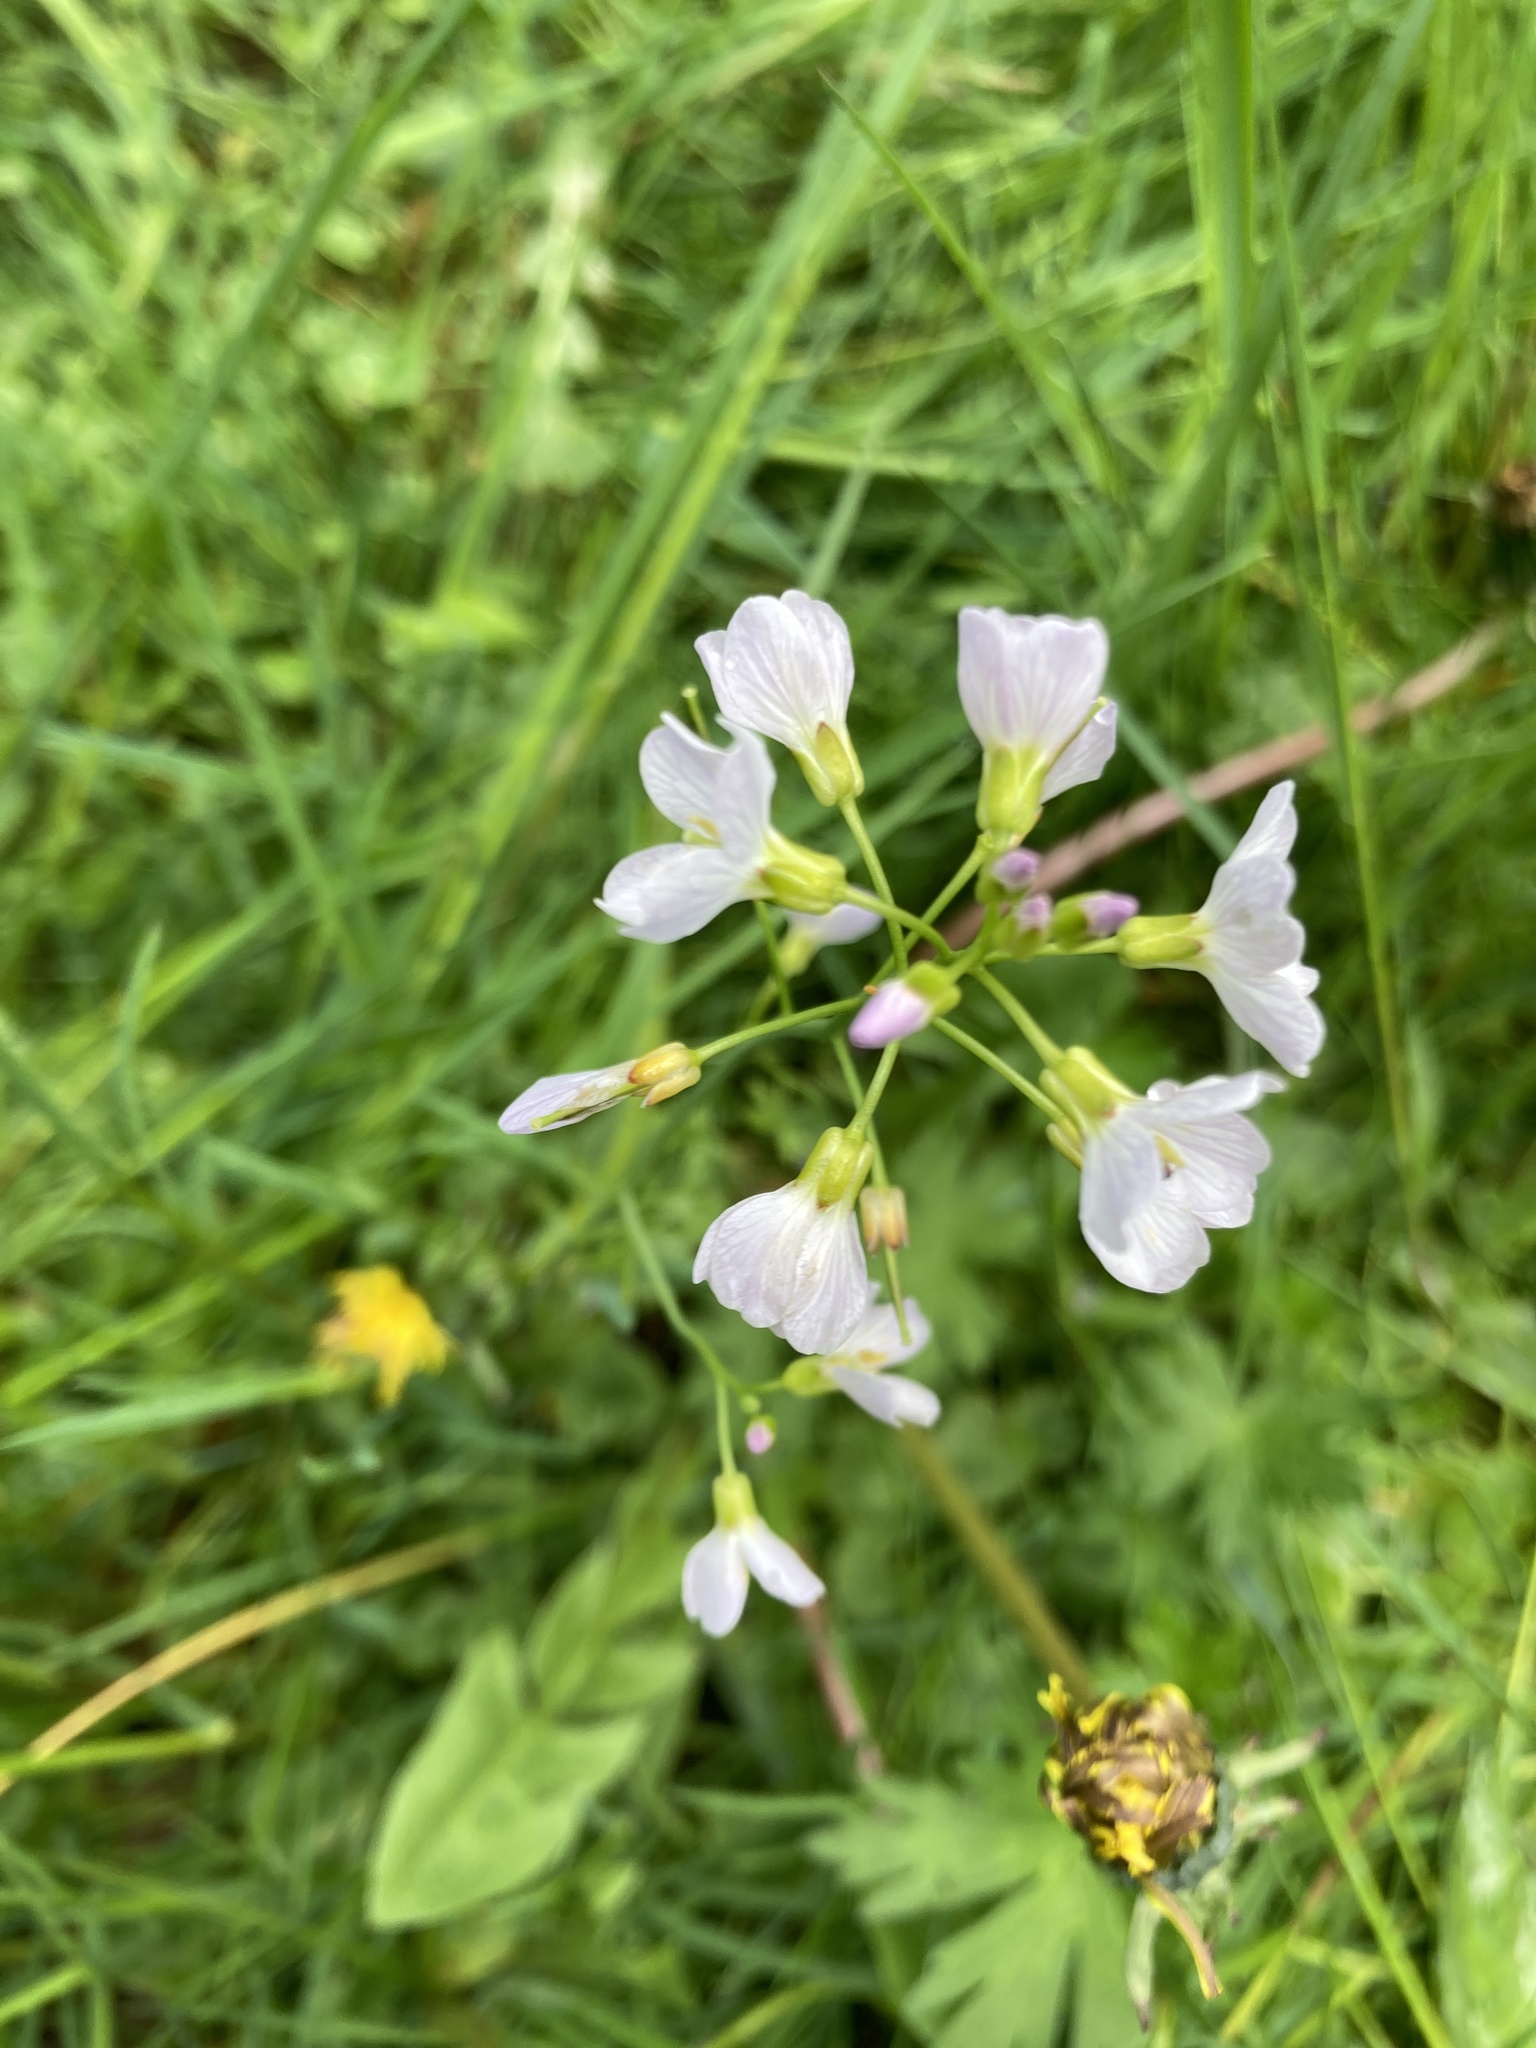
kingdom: Plantae
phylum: Tracheophyta
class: Magnoliopsida
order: Brassicales
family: Brassicaceae
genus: Cardamine
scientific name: Cardamine pratensis
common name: Cuckoo flower
